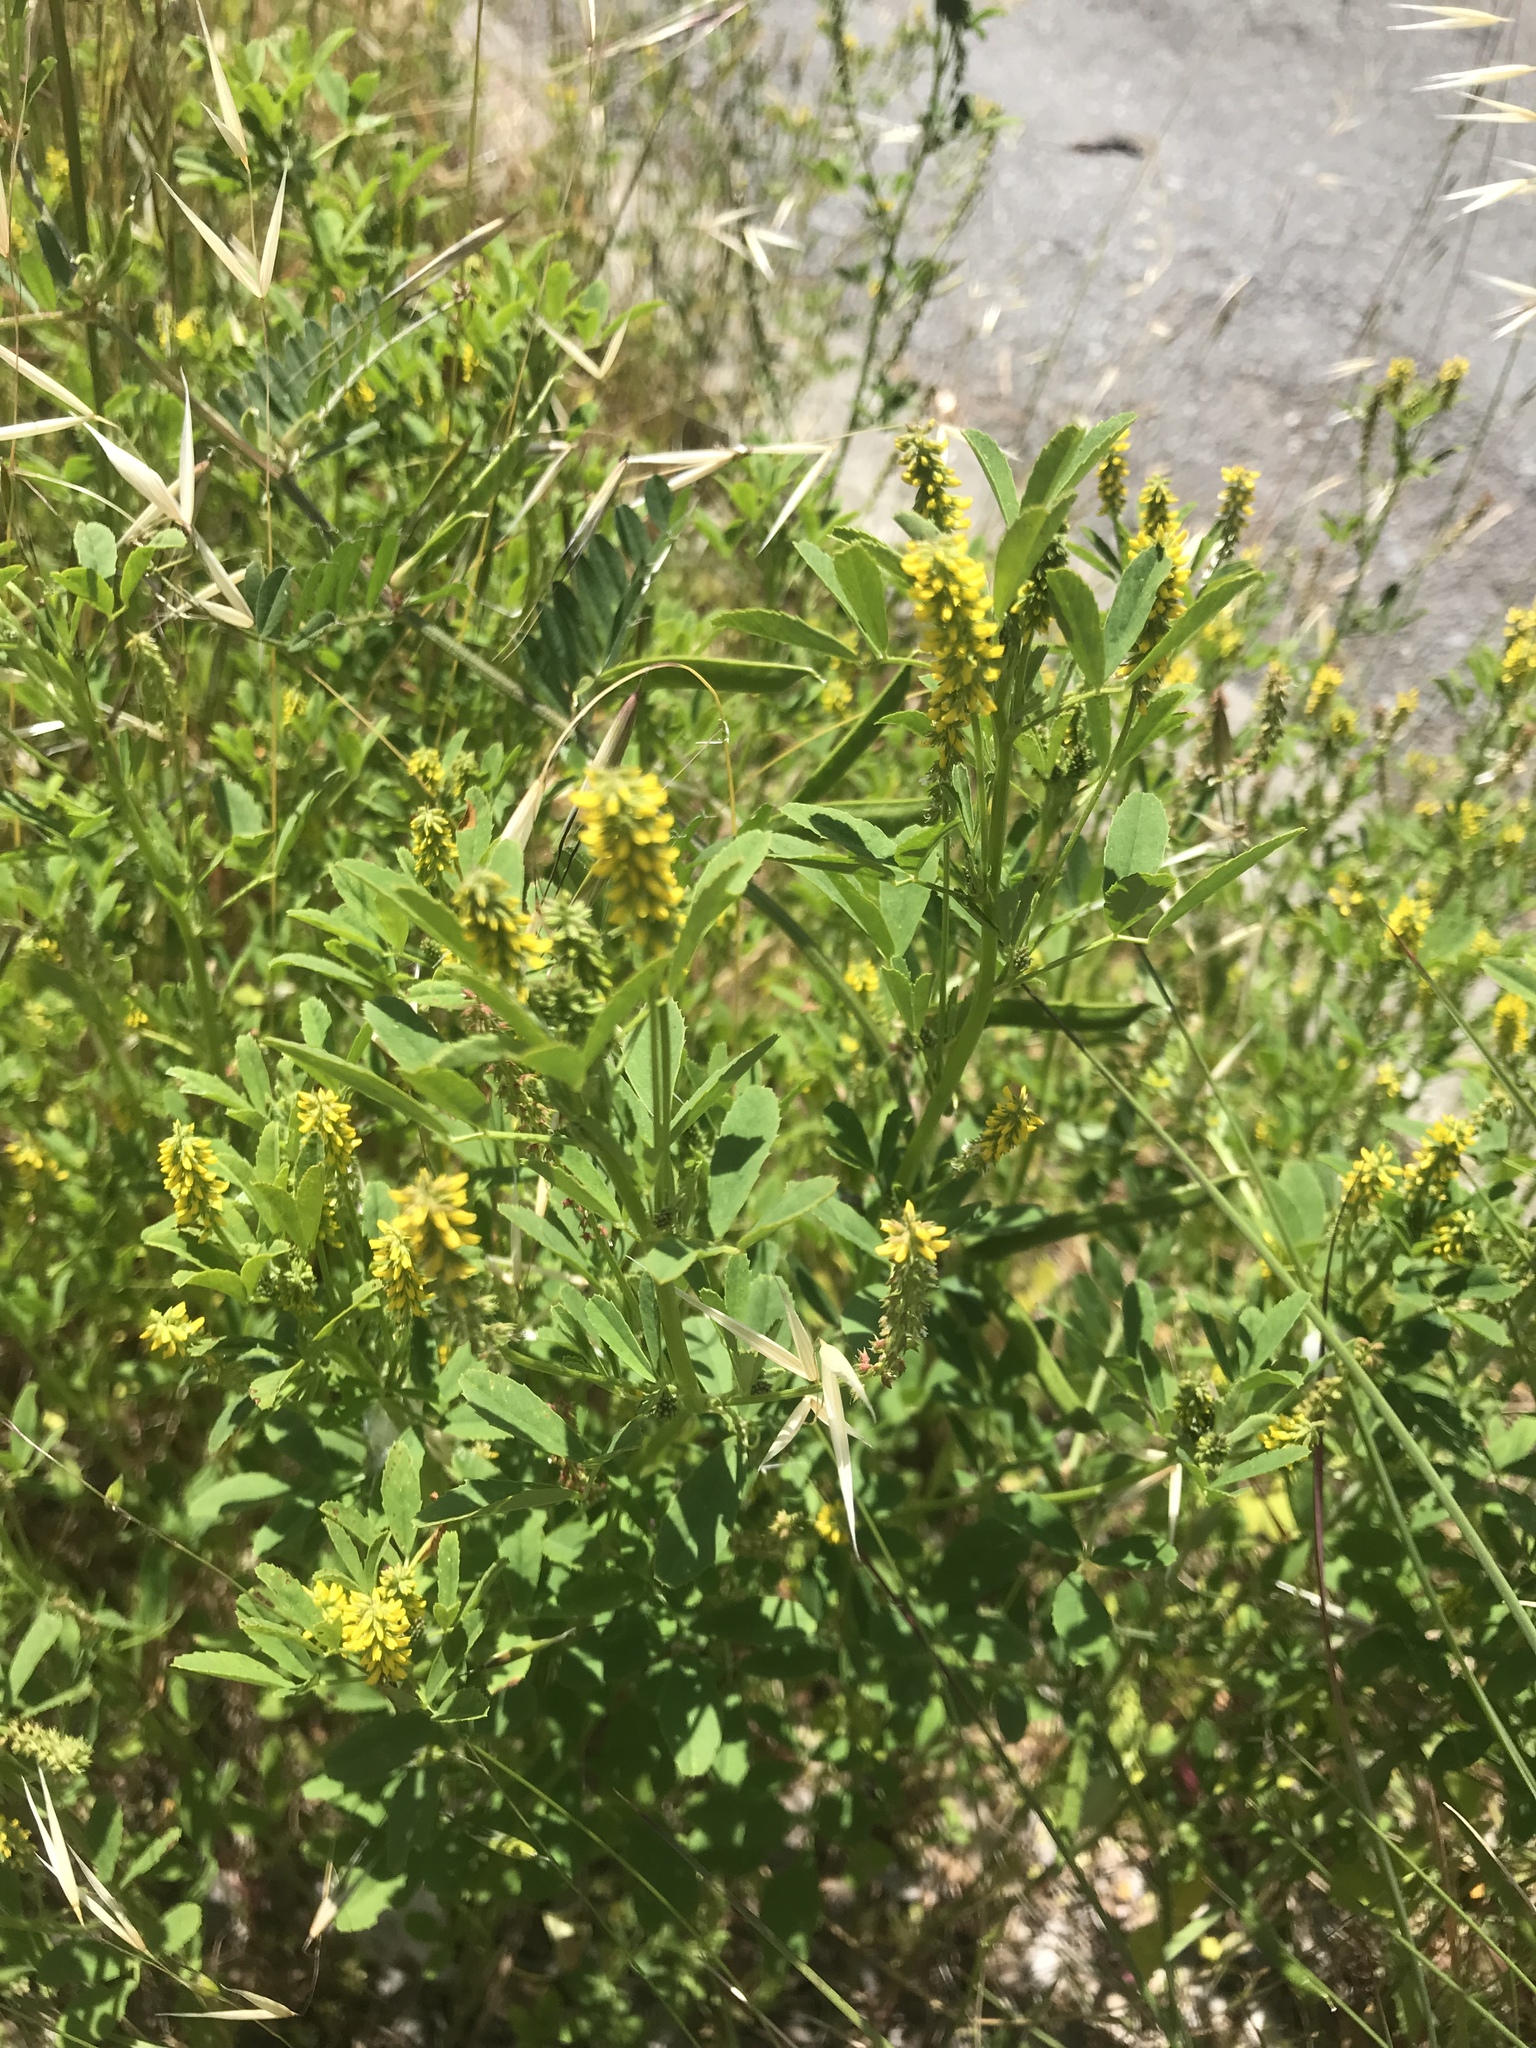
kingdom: Plantae
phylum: Tracheophyta
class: Magnoliopsida
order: Fabales
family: Fabaceae
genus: Melilotus
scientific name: Melilotus indicus
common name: Small melilot
